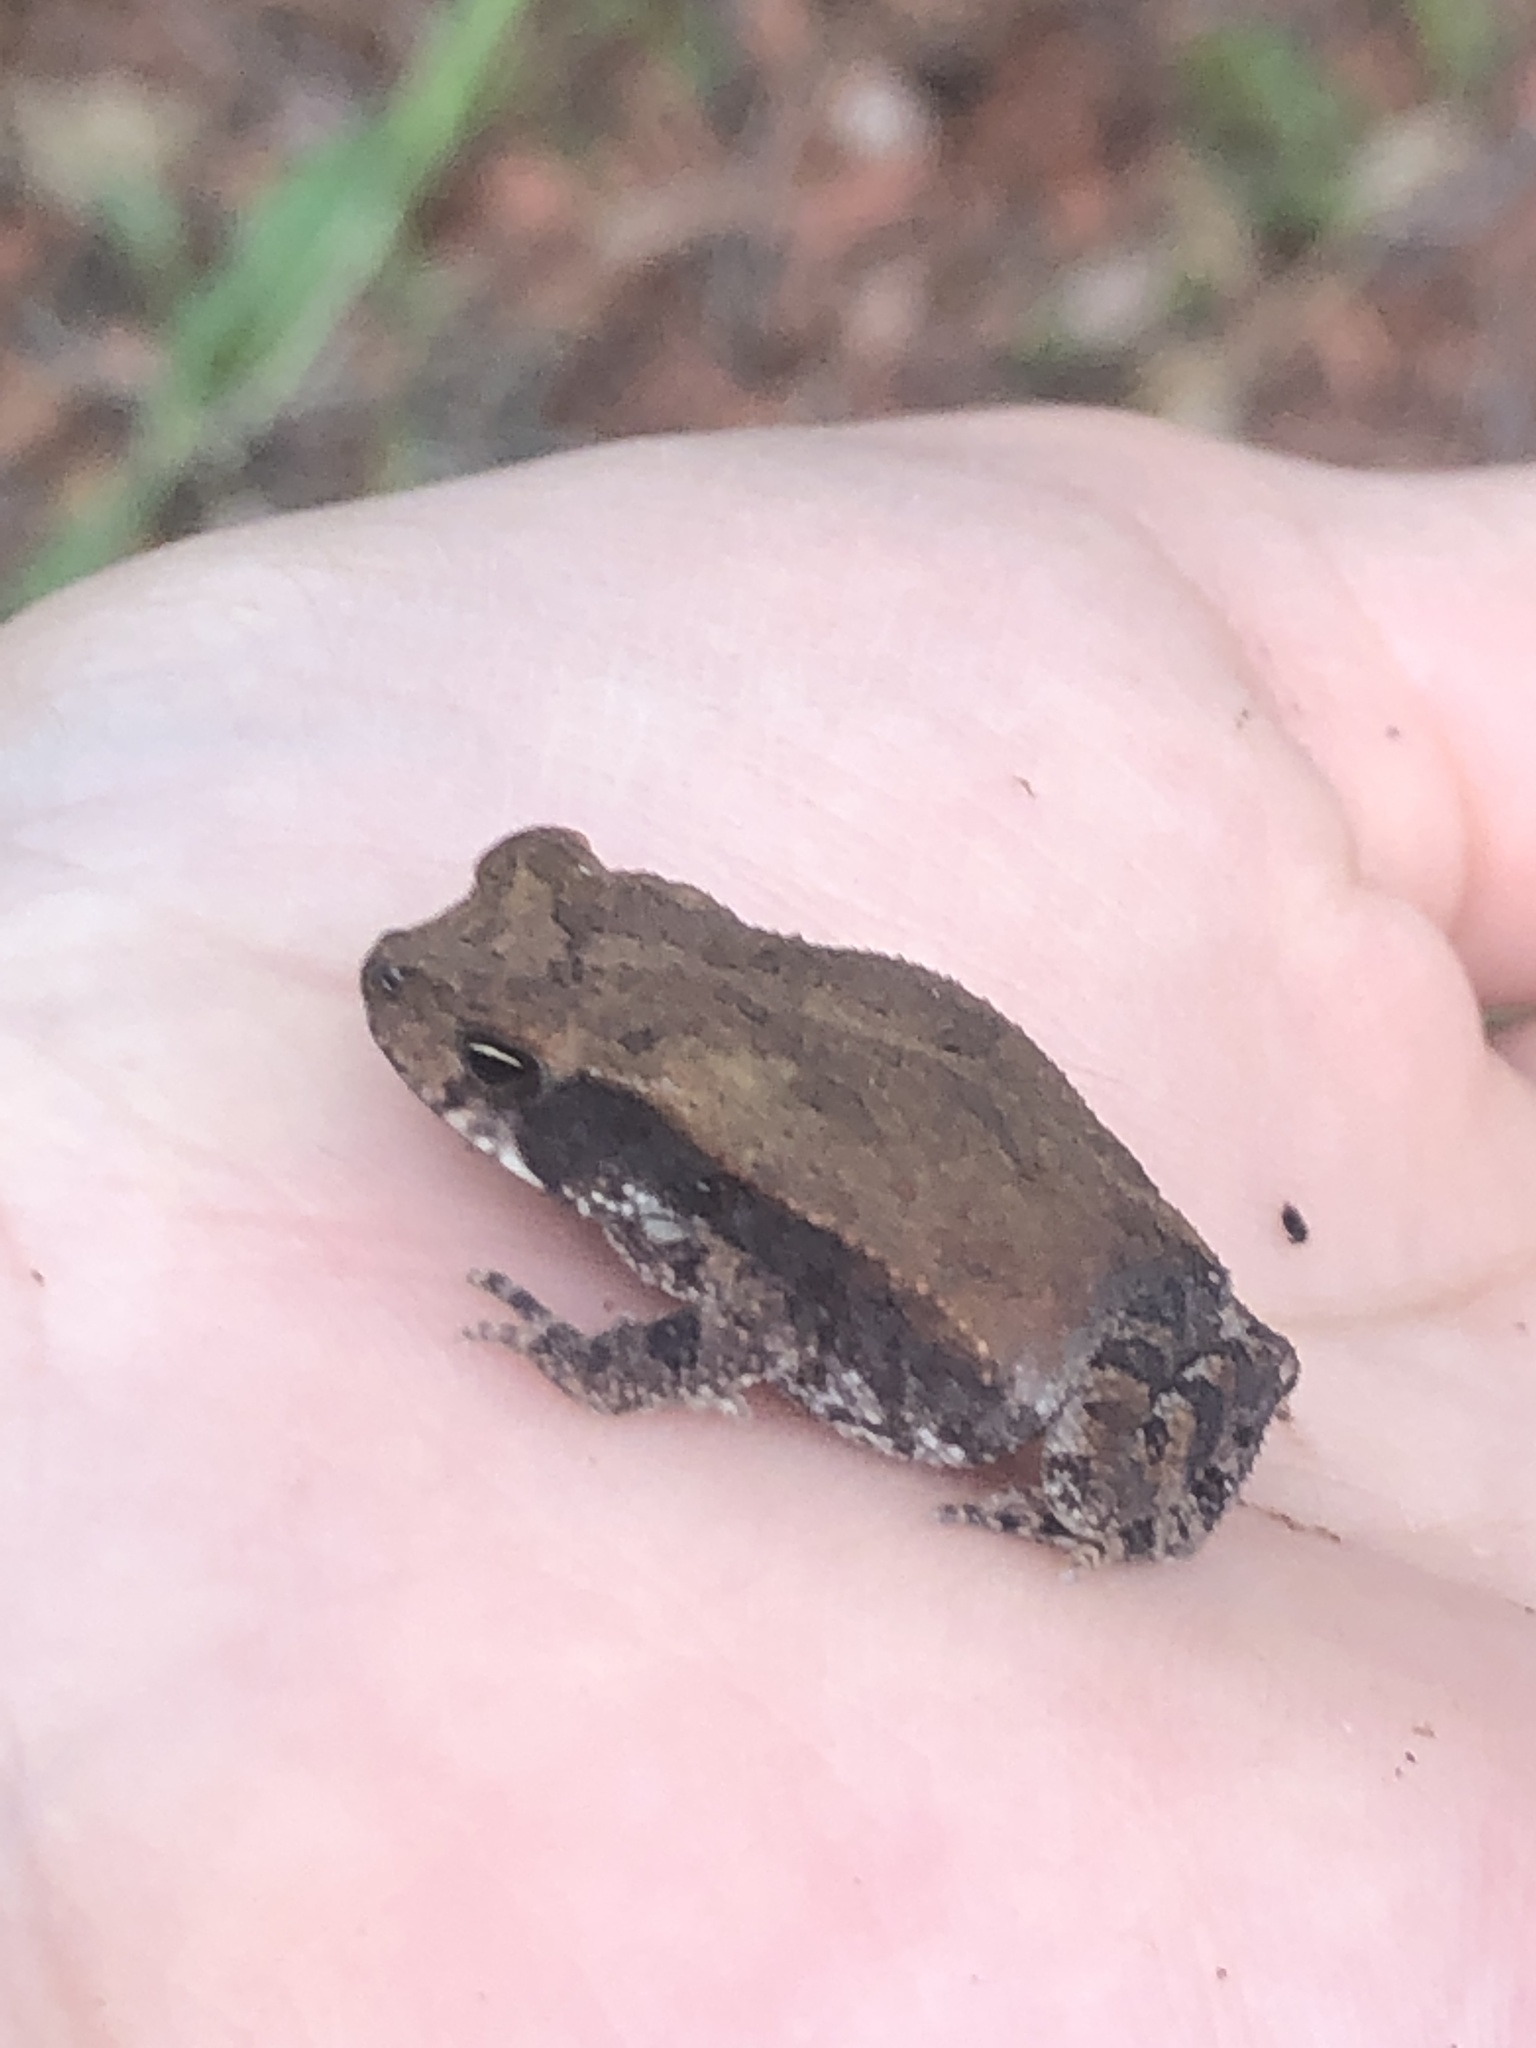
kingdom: Animalia
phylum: Chordata
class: Amphibia
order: Anura
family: Bufonidae
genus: Incilius
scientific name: Incilius nebulifer
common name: Gulf coast toad
